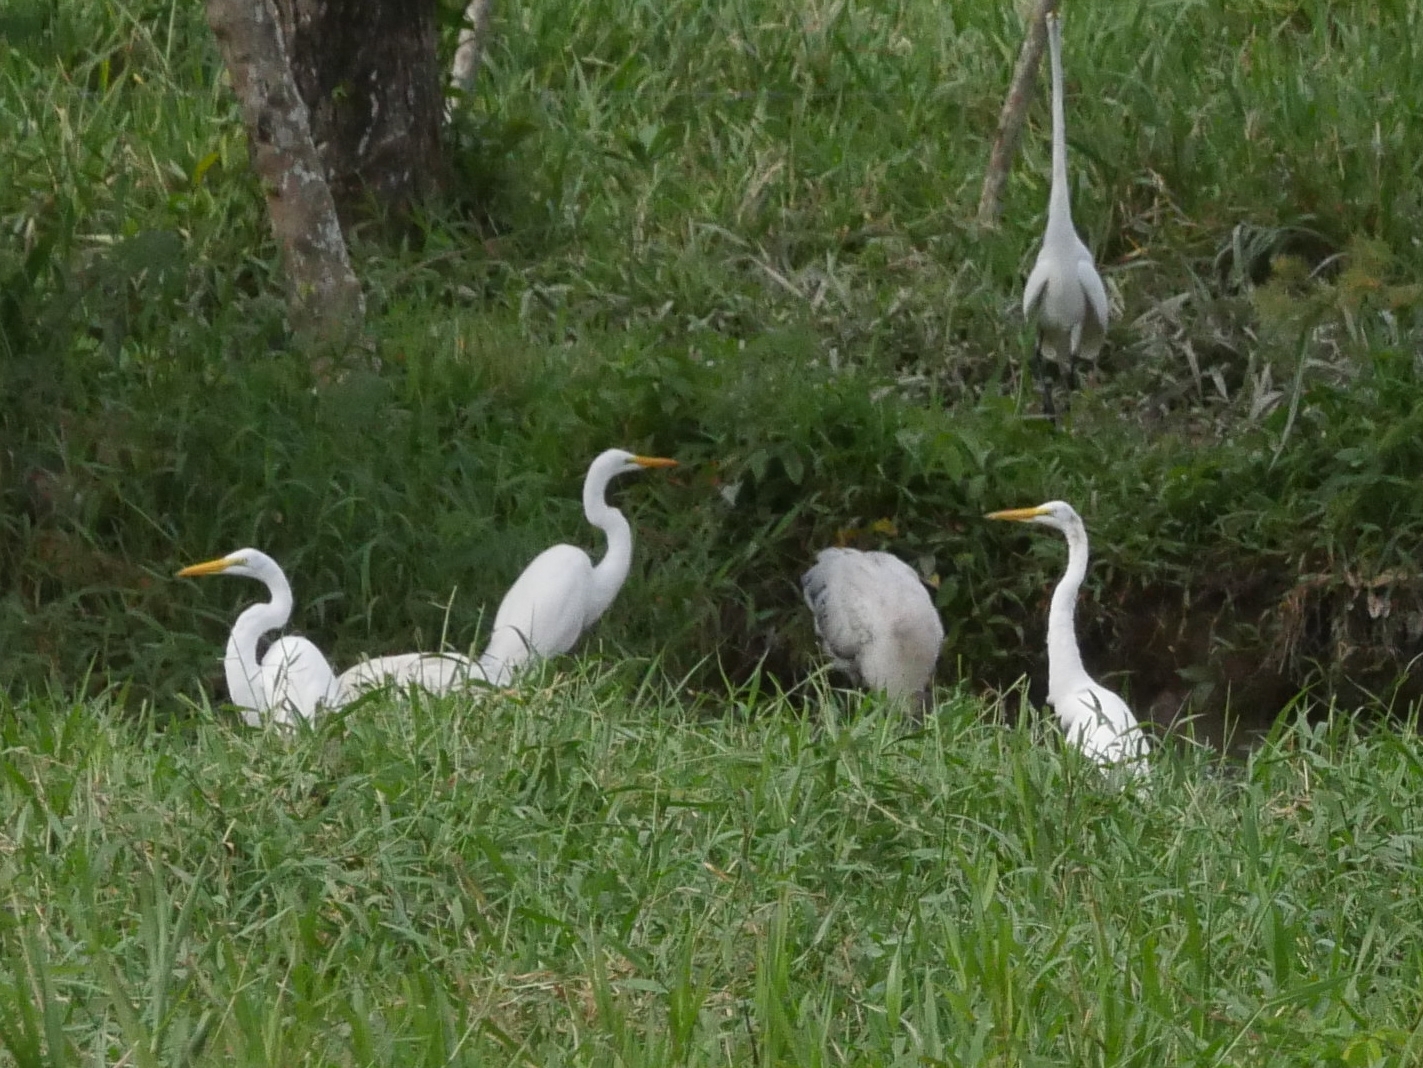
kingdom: Animalia
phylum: Chordata
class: Aves
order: Pelecaniformes
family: Ardeidae
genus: Ardea
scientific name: Ardea alba
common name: Great egret
